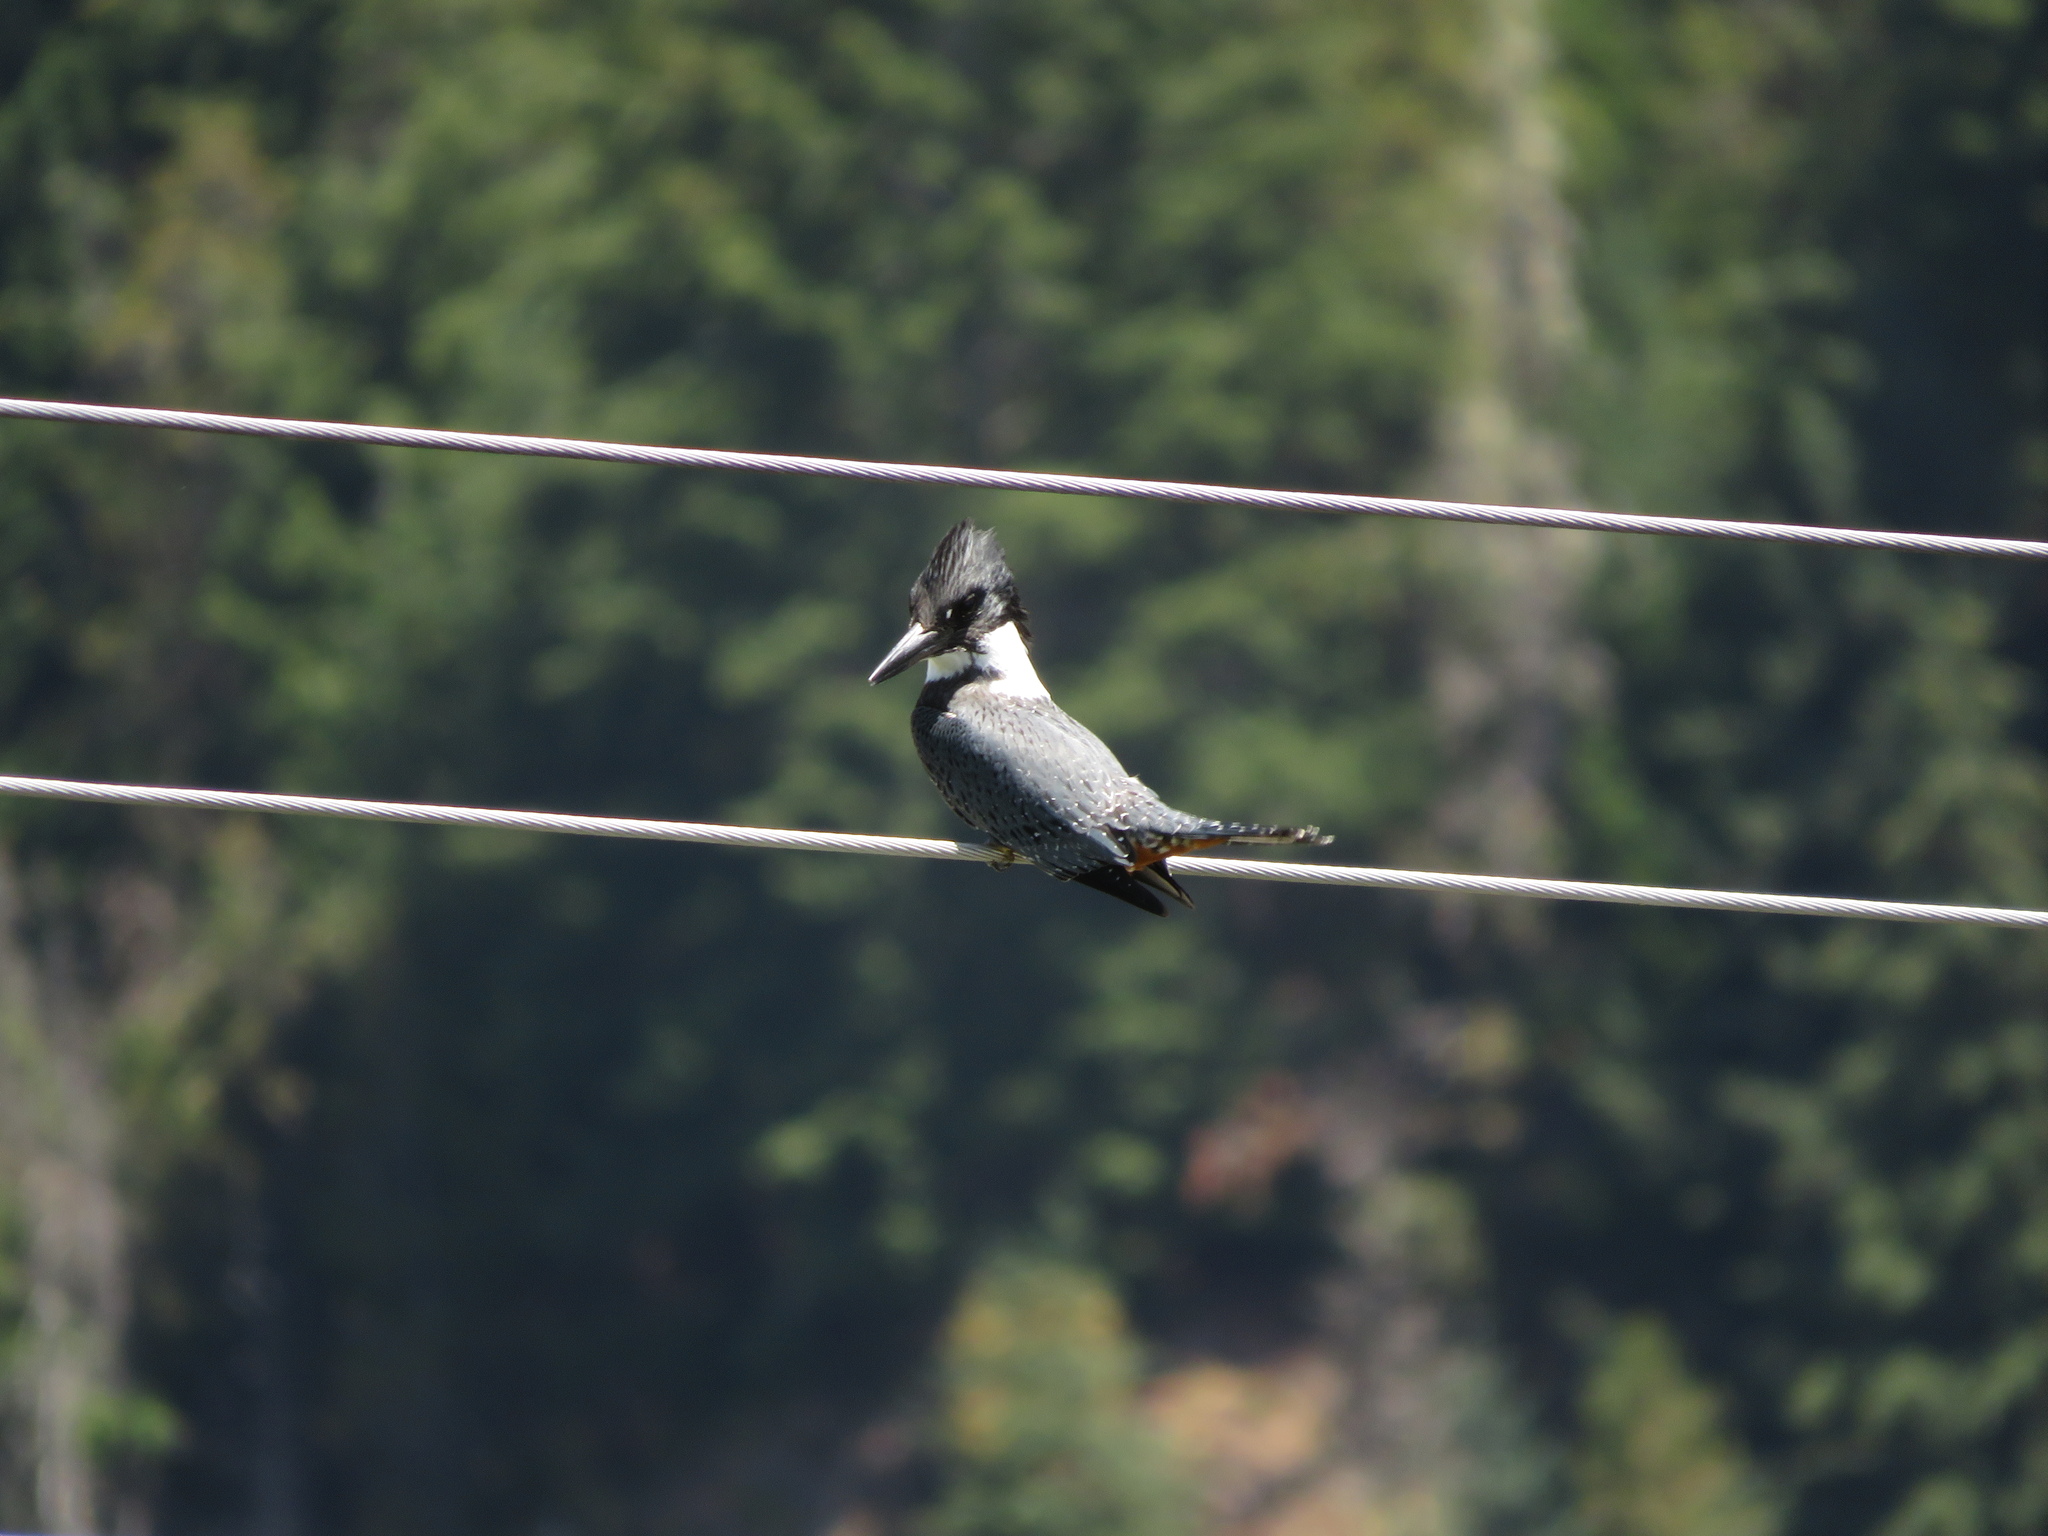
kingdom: Animalia
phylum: Chordata
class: Aves
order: Coraciiformes
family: Alcedinidae
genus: Megaceryle
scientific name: Megaceryle torquata
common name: Ringed kingfisher
